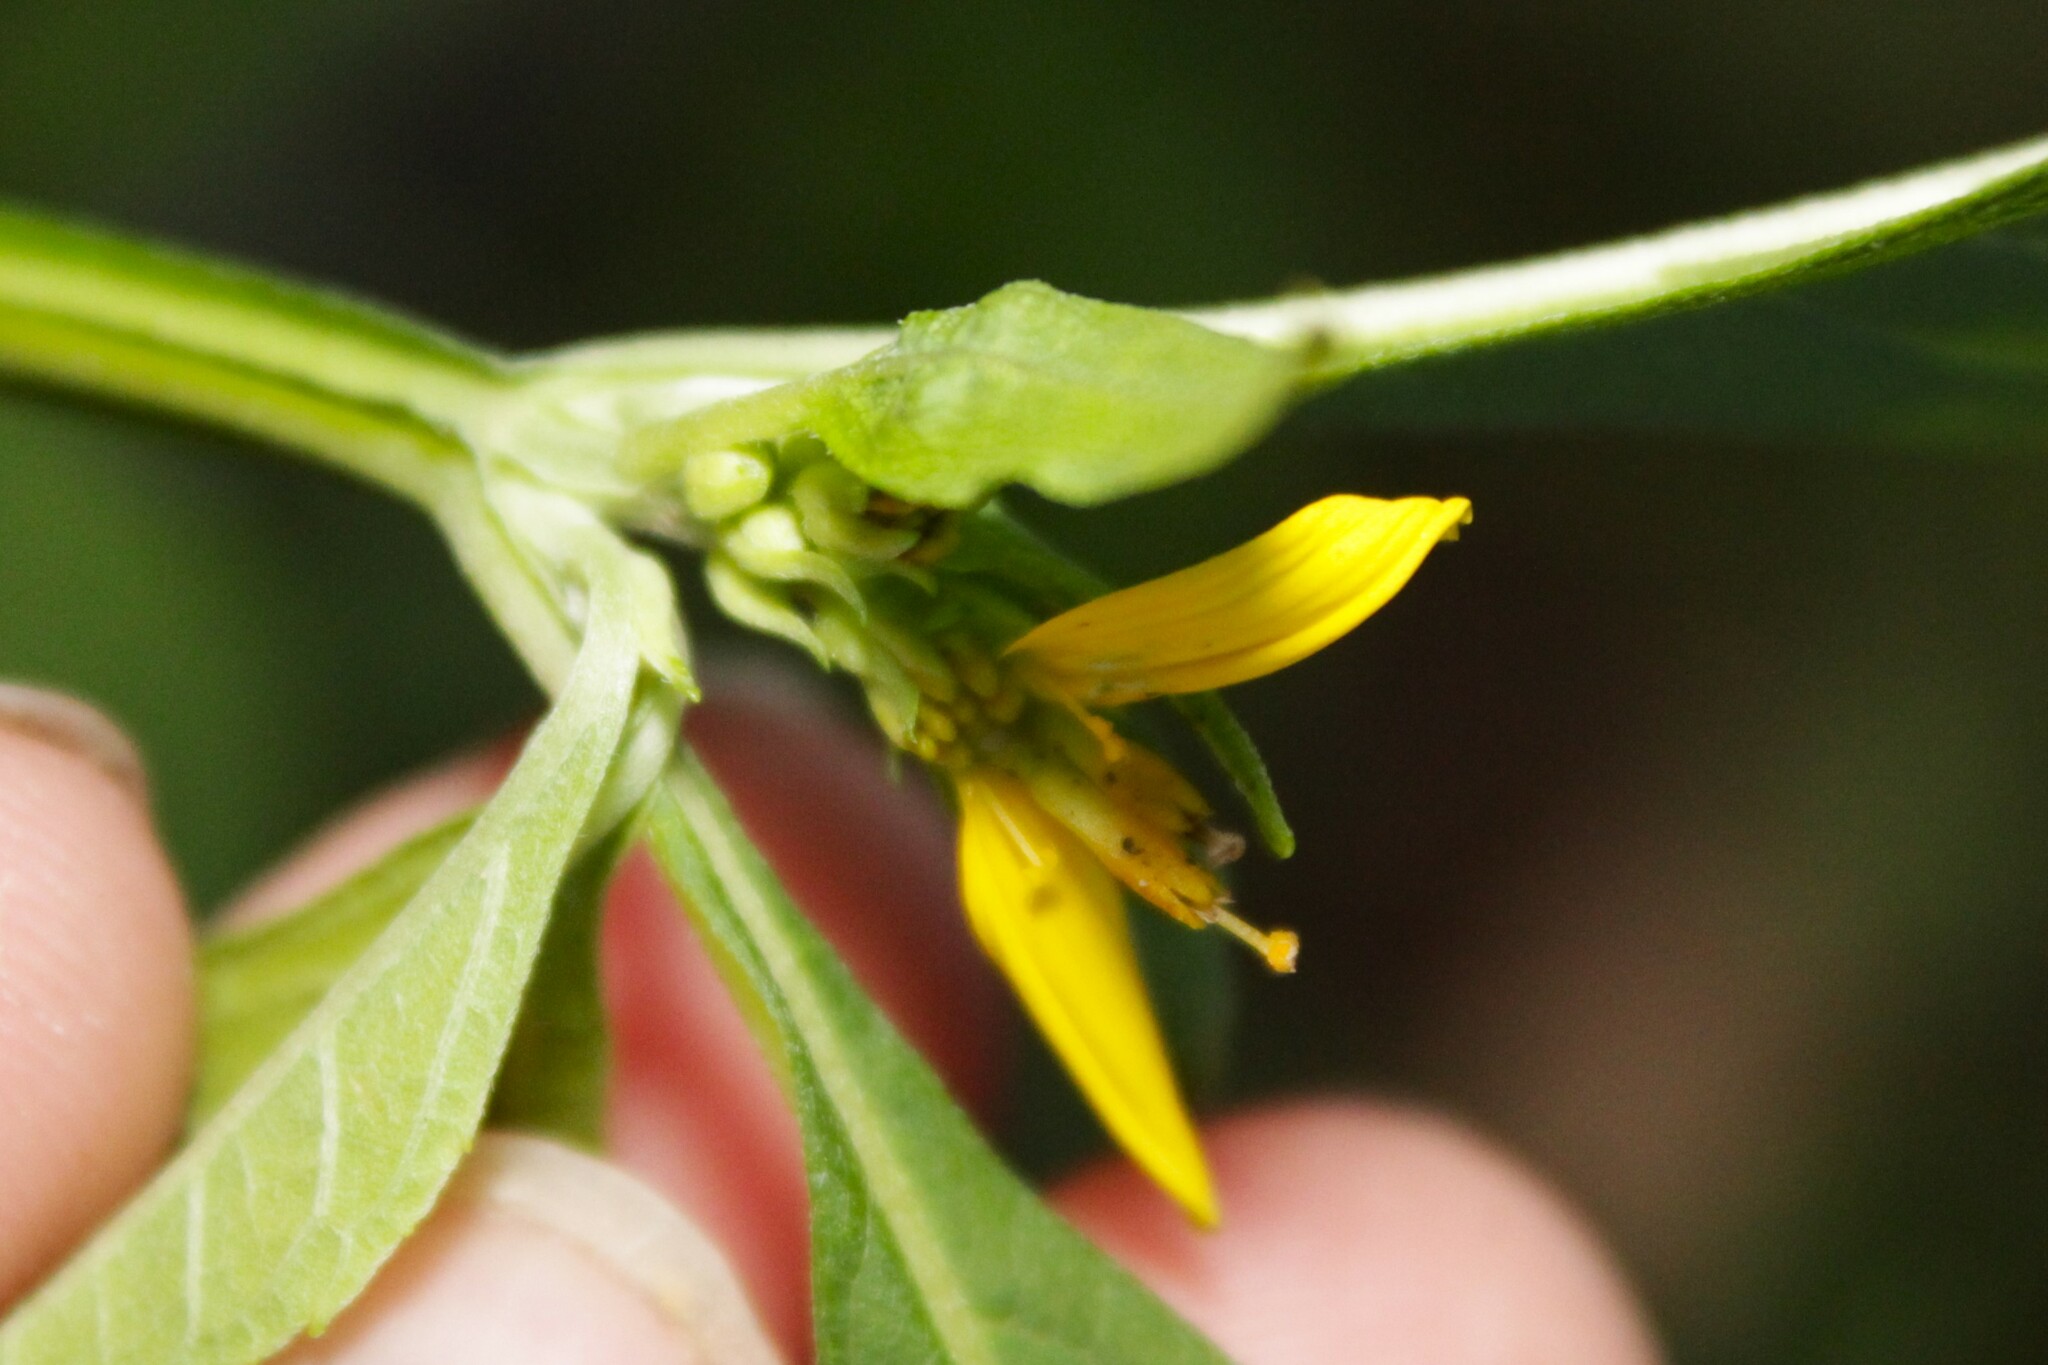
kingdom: Plantae
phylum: Tracheophyta
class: Magnoliopsida
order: Asterales
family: Asteraceae
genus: Verbesina
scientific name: Verbesina occidentalis
